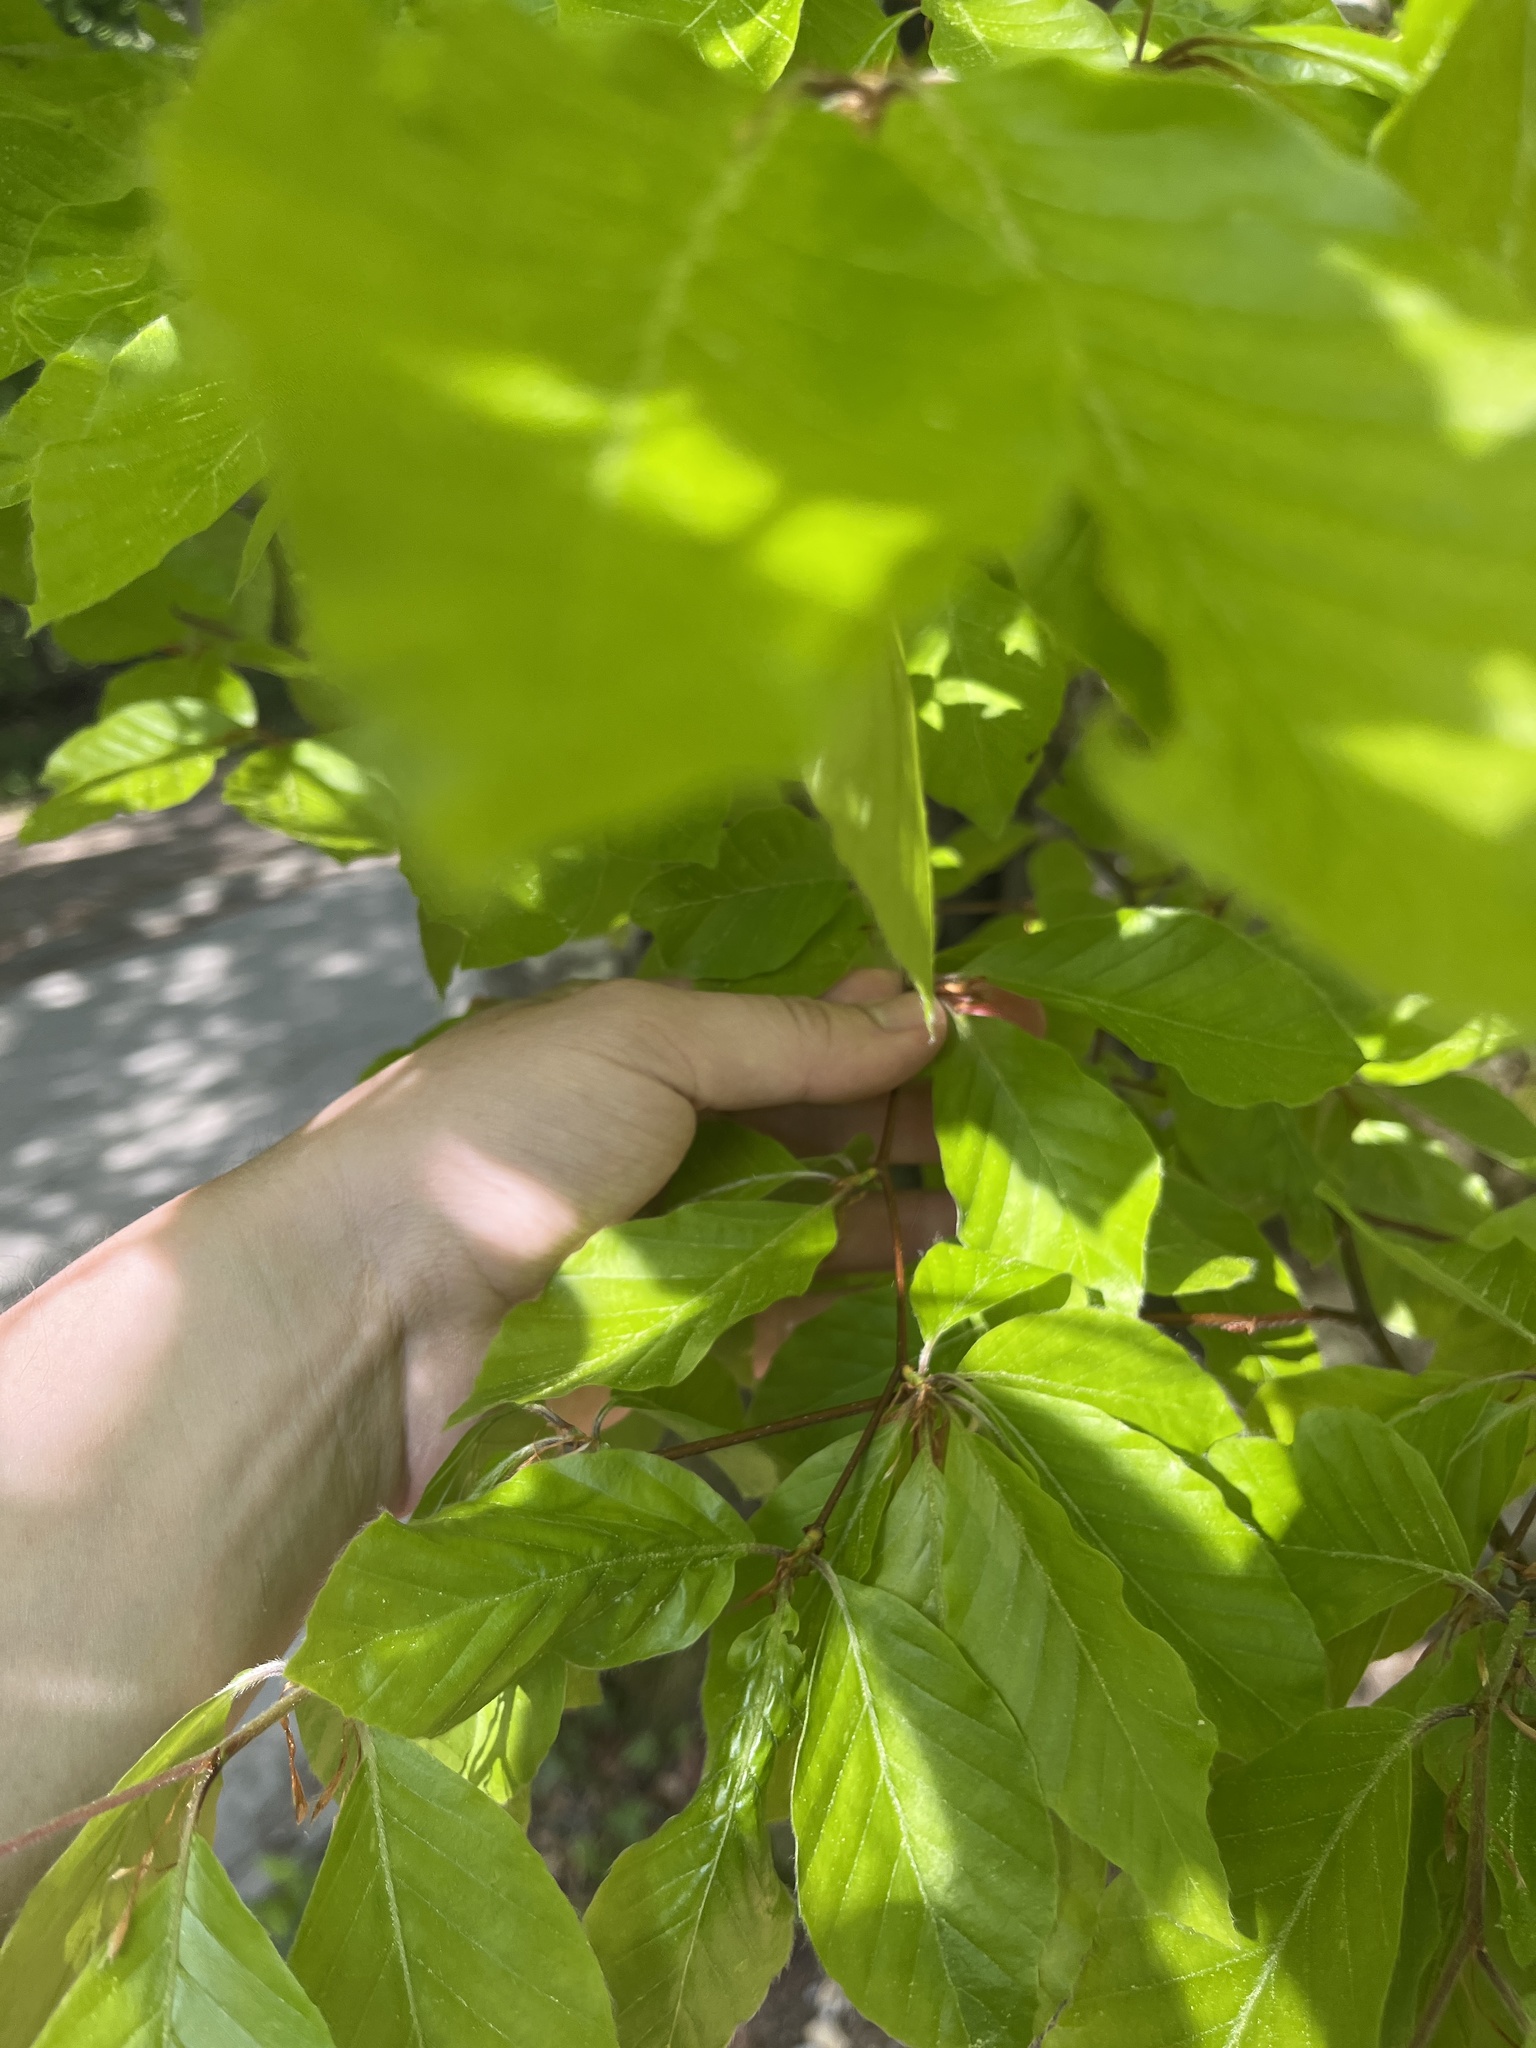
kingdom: Plantae
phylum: Tracheophyta
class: Magnoliopsida
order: Fagales
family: Fagaceae
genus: Fagus
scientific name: Fagus sylvatica
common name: Beech
